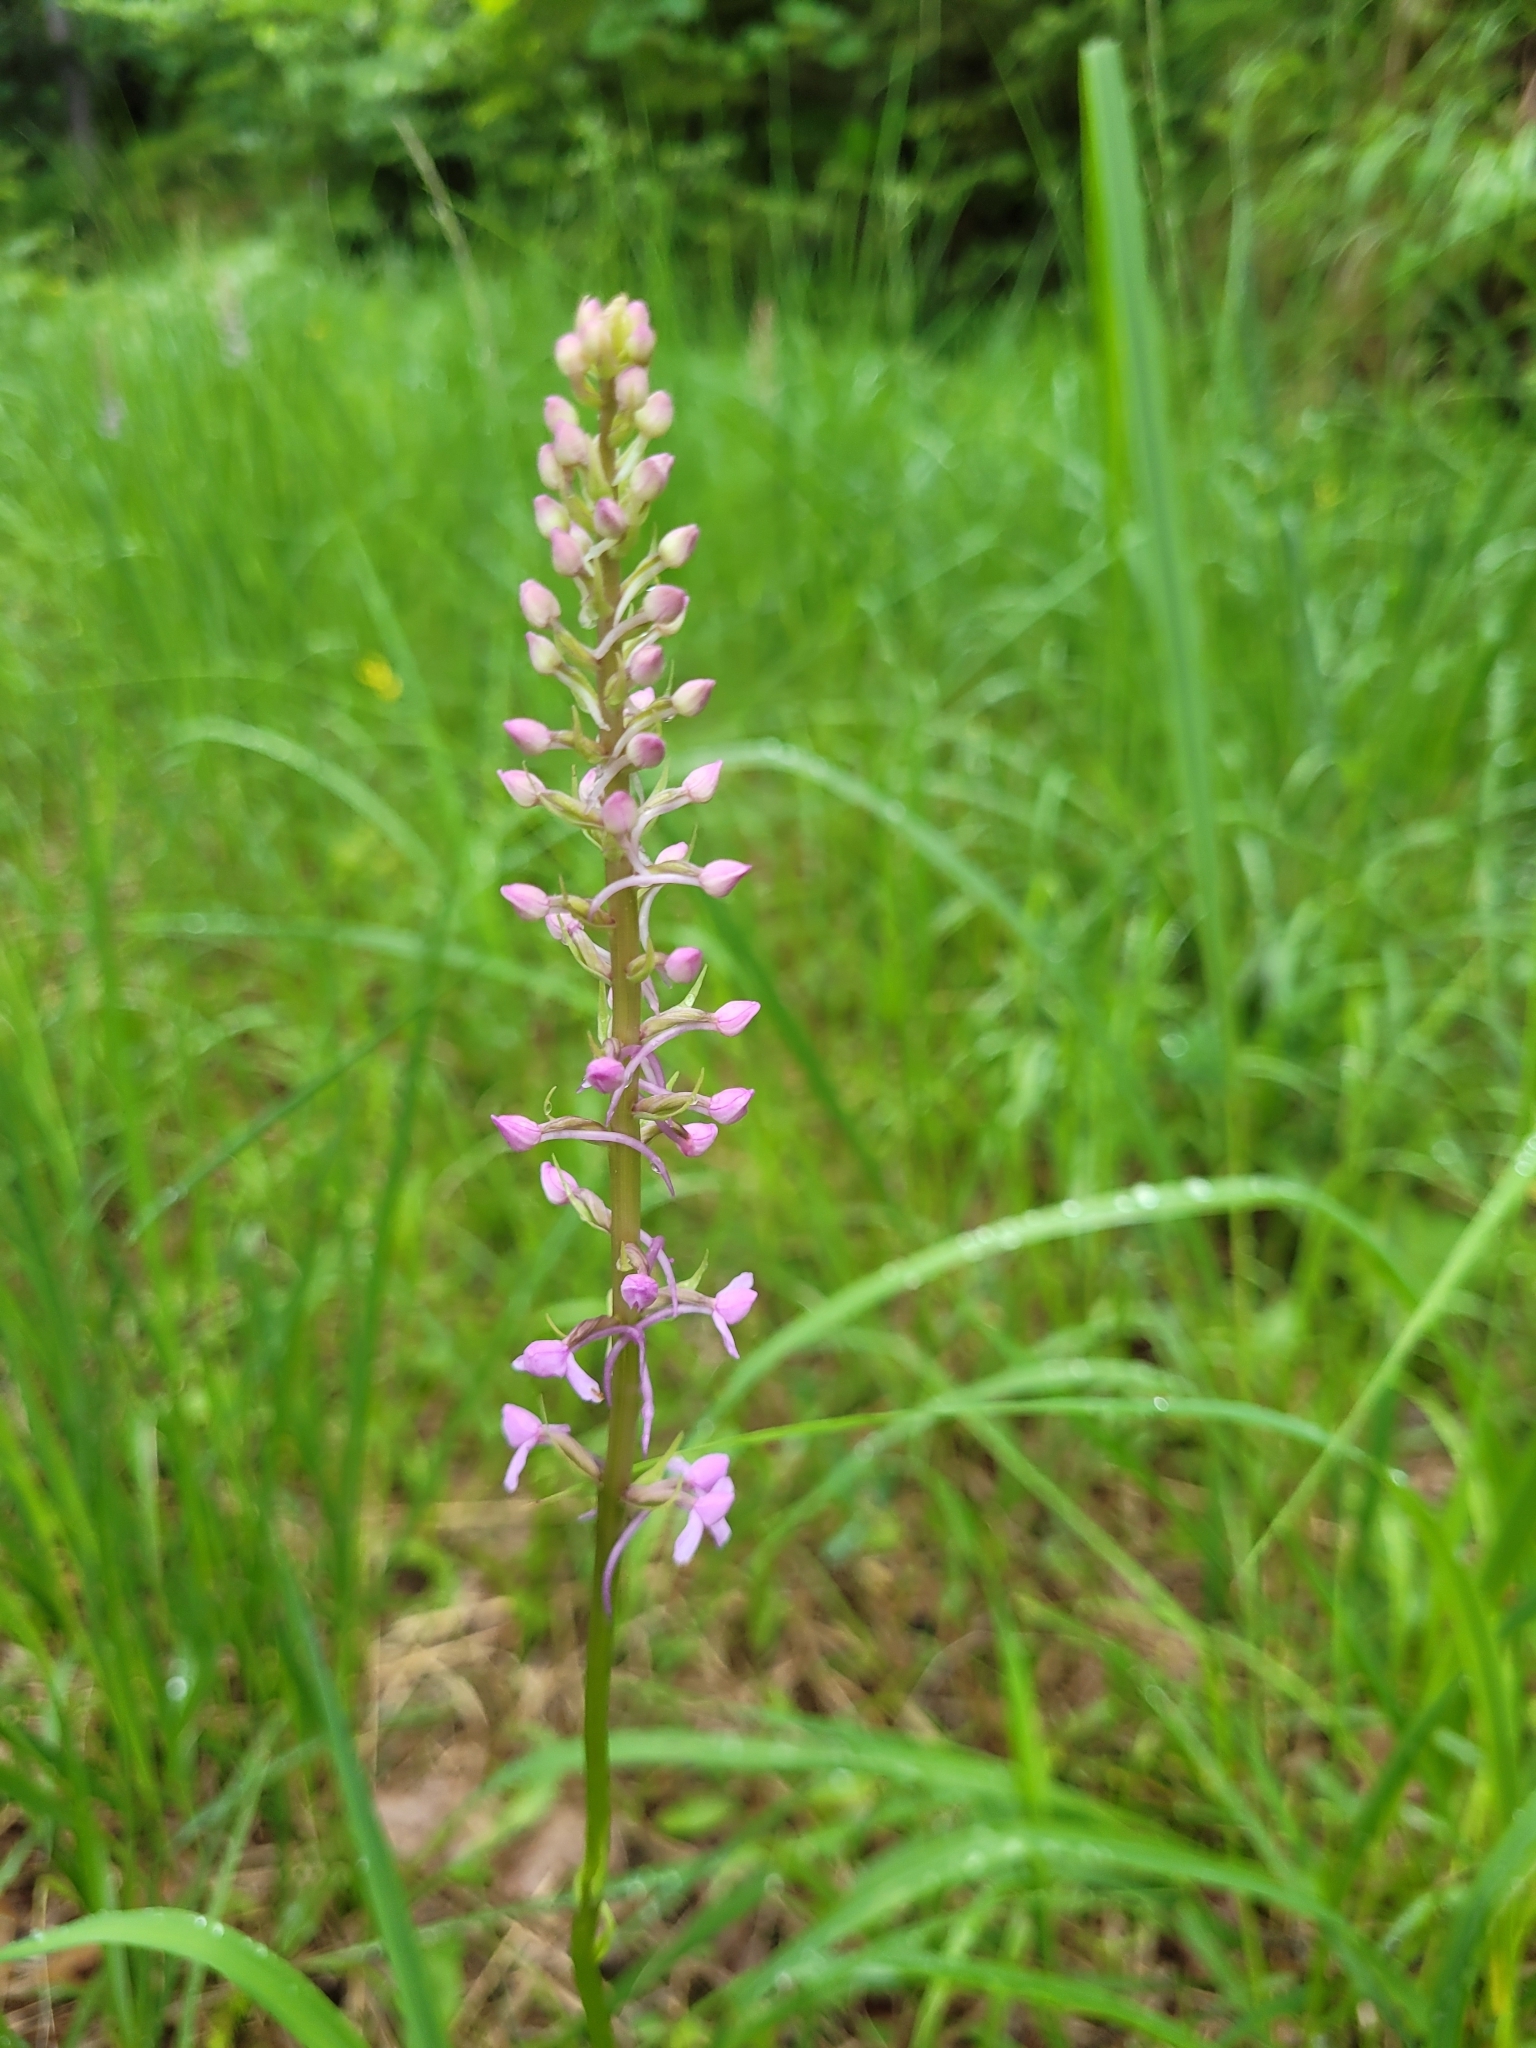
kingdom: Plantae
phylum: Tracheophyta
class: Liliopsida
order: Asparagales
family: Orchidaceae
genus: Gymnadenia
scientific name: Gymnadenia conopsea
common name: Fragrant orchid
